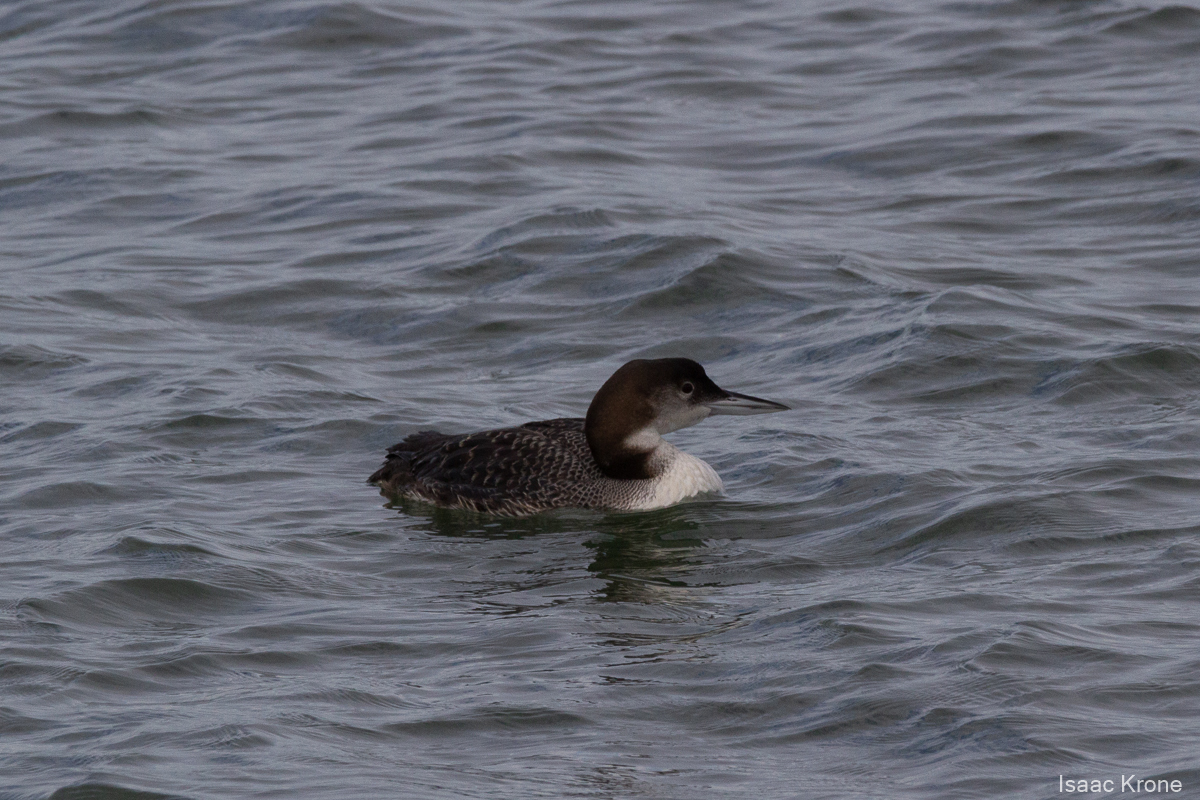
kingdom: Animalia
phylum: Chordata
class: Aves
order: Gaviiformes
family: Gaviidae
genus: Gavia
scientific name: Gavia immer
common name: Common loon
